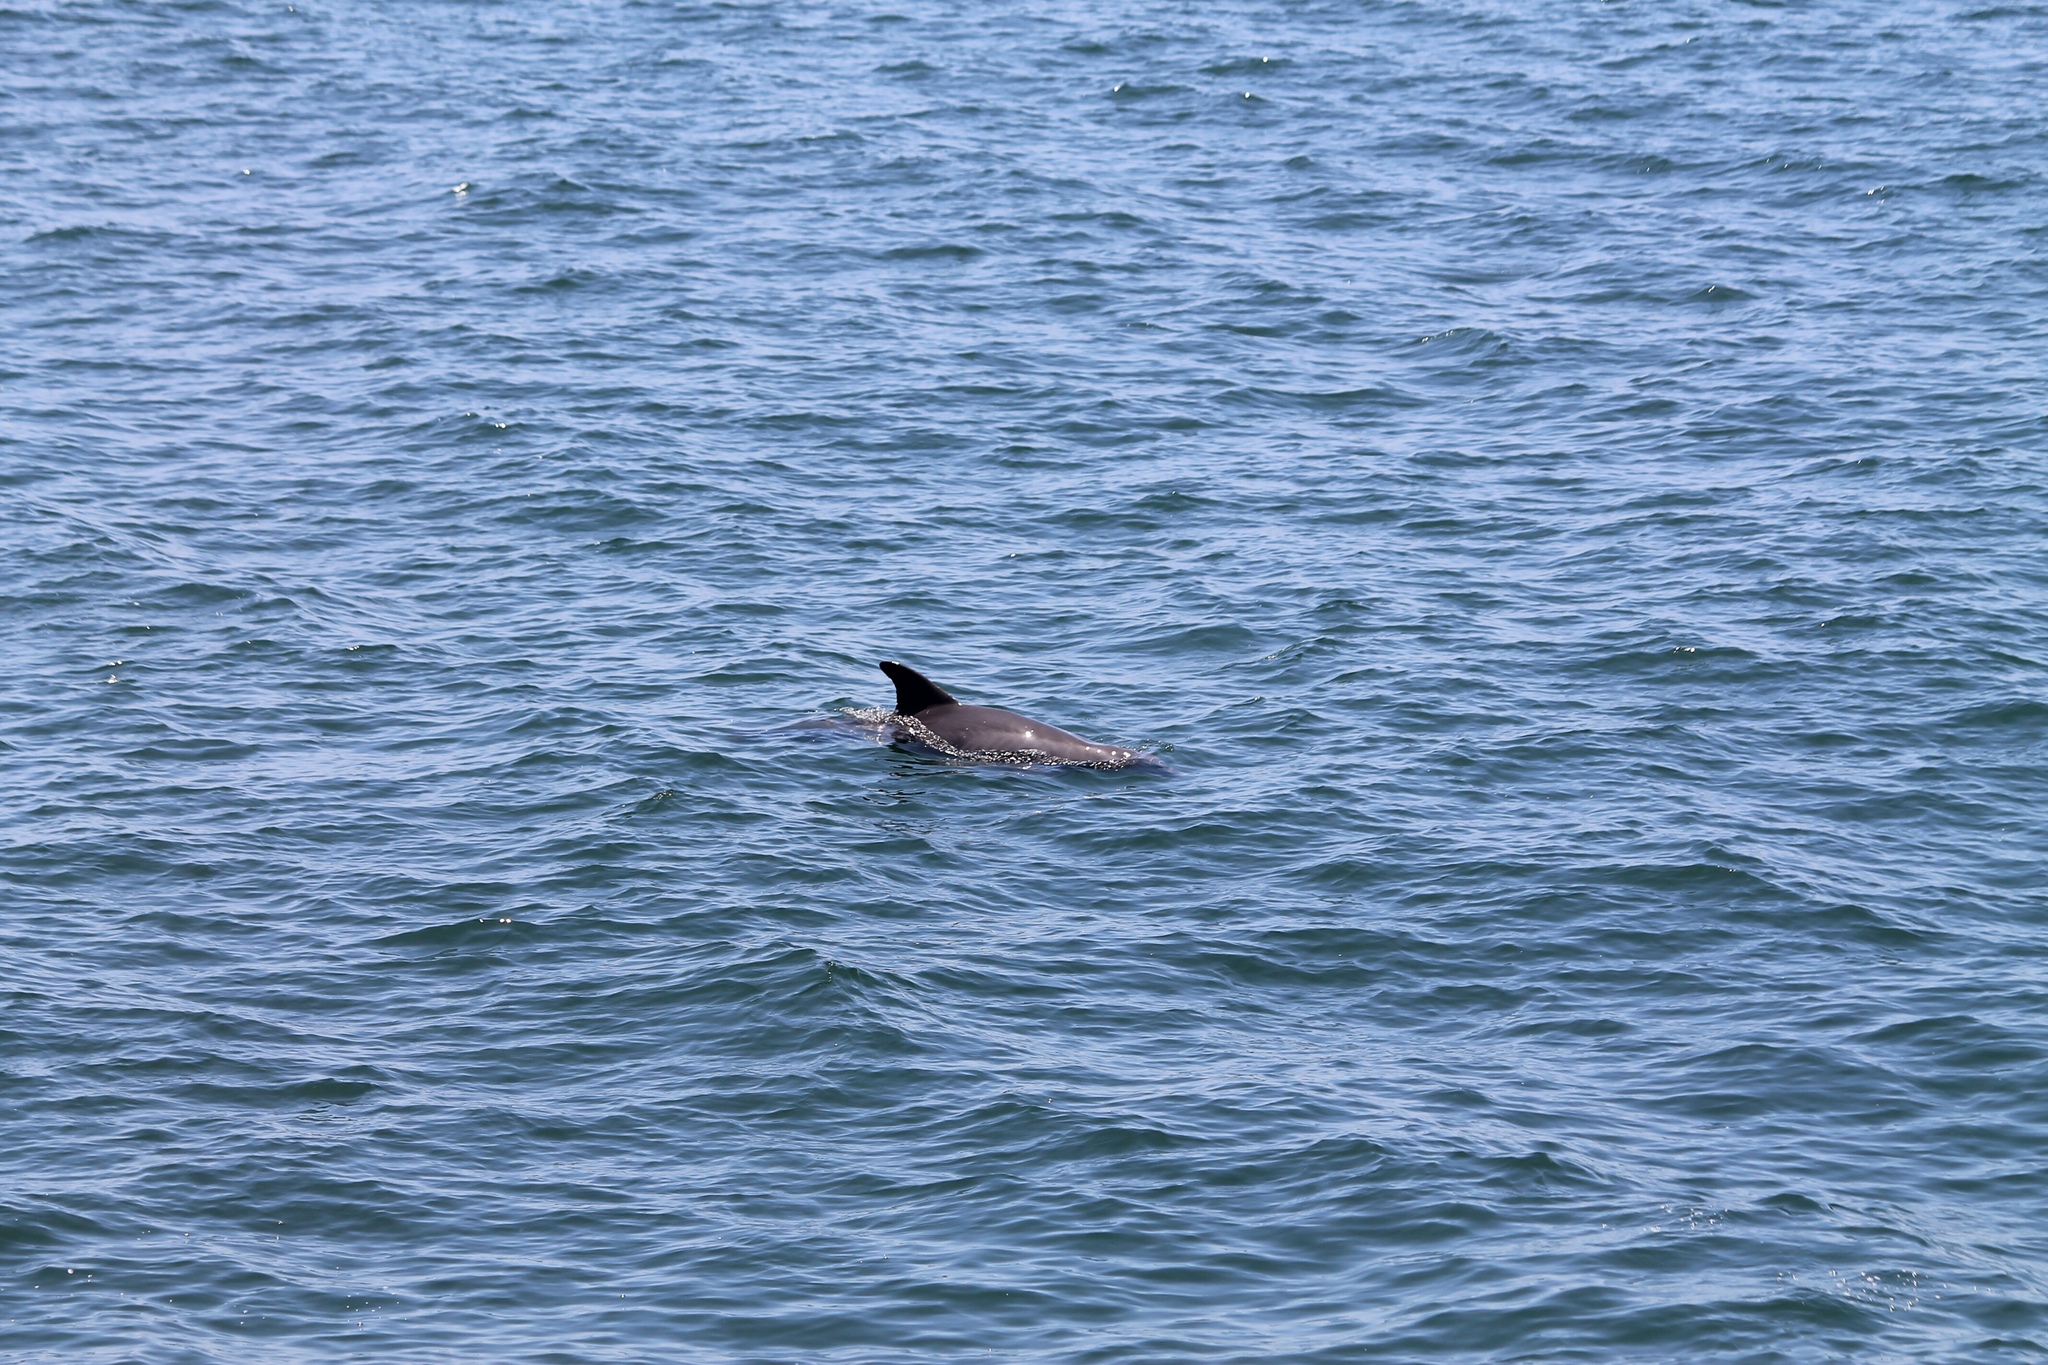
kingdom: Animalia
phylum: Chordata
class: Mammalia
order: Cetacea
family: Delphinidae
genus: Tursiops
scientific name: Tursiops truncatus
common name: Bottlenose dolphin
